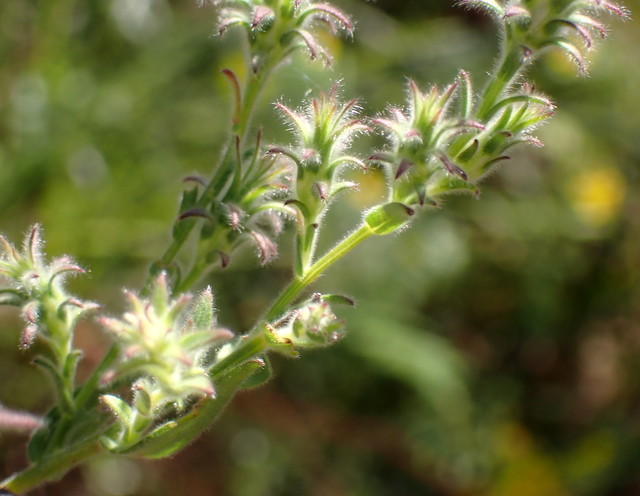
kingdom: Plantae
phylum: Tracheophyta
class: Magnoliopsida
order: Asterales
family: Asteraceae
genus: Symphyotrichum
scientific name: Symphyotrichum plumosum
